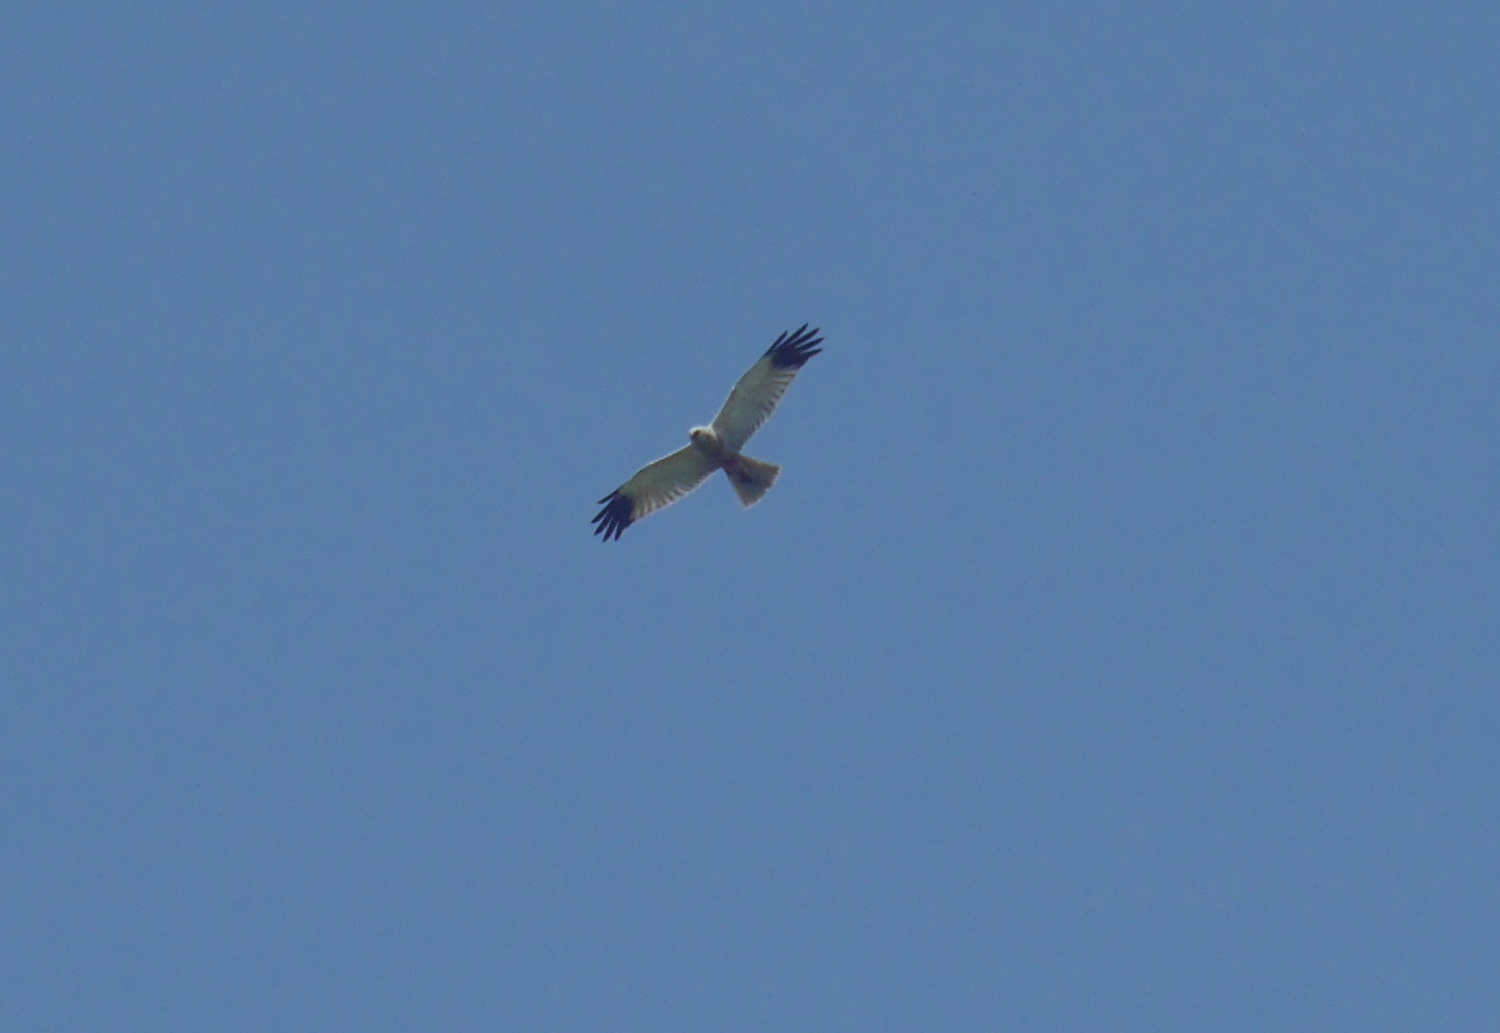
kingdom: Animalia
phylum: Chordata
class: Aves
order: Accipitriformes
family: Accipitridae
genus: Circus
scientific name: Circus aeruginosus
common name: Western marsh harrier
